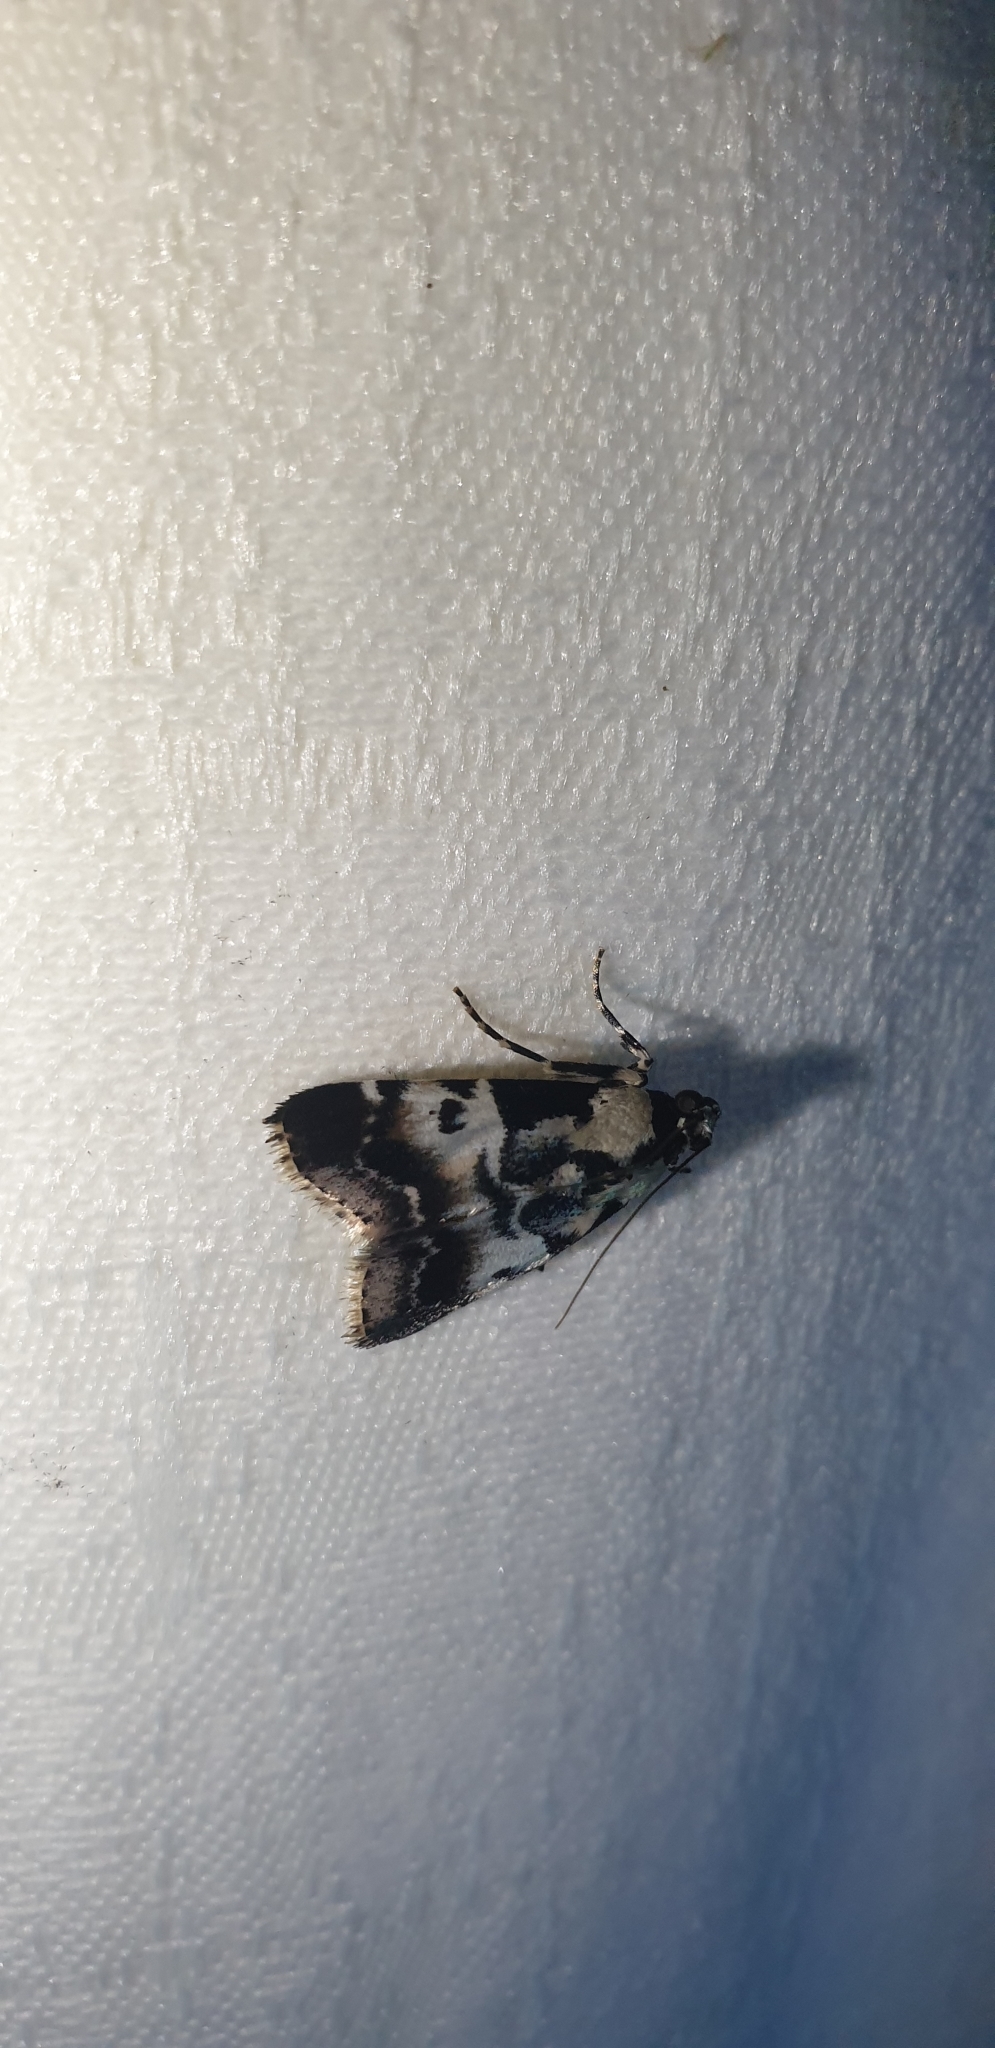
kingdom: Animalia
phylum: Arthropoda
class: Insecta
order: Lepidoptera
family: Pyralidae
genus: Orthaga
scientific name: Orthaga seminivea
